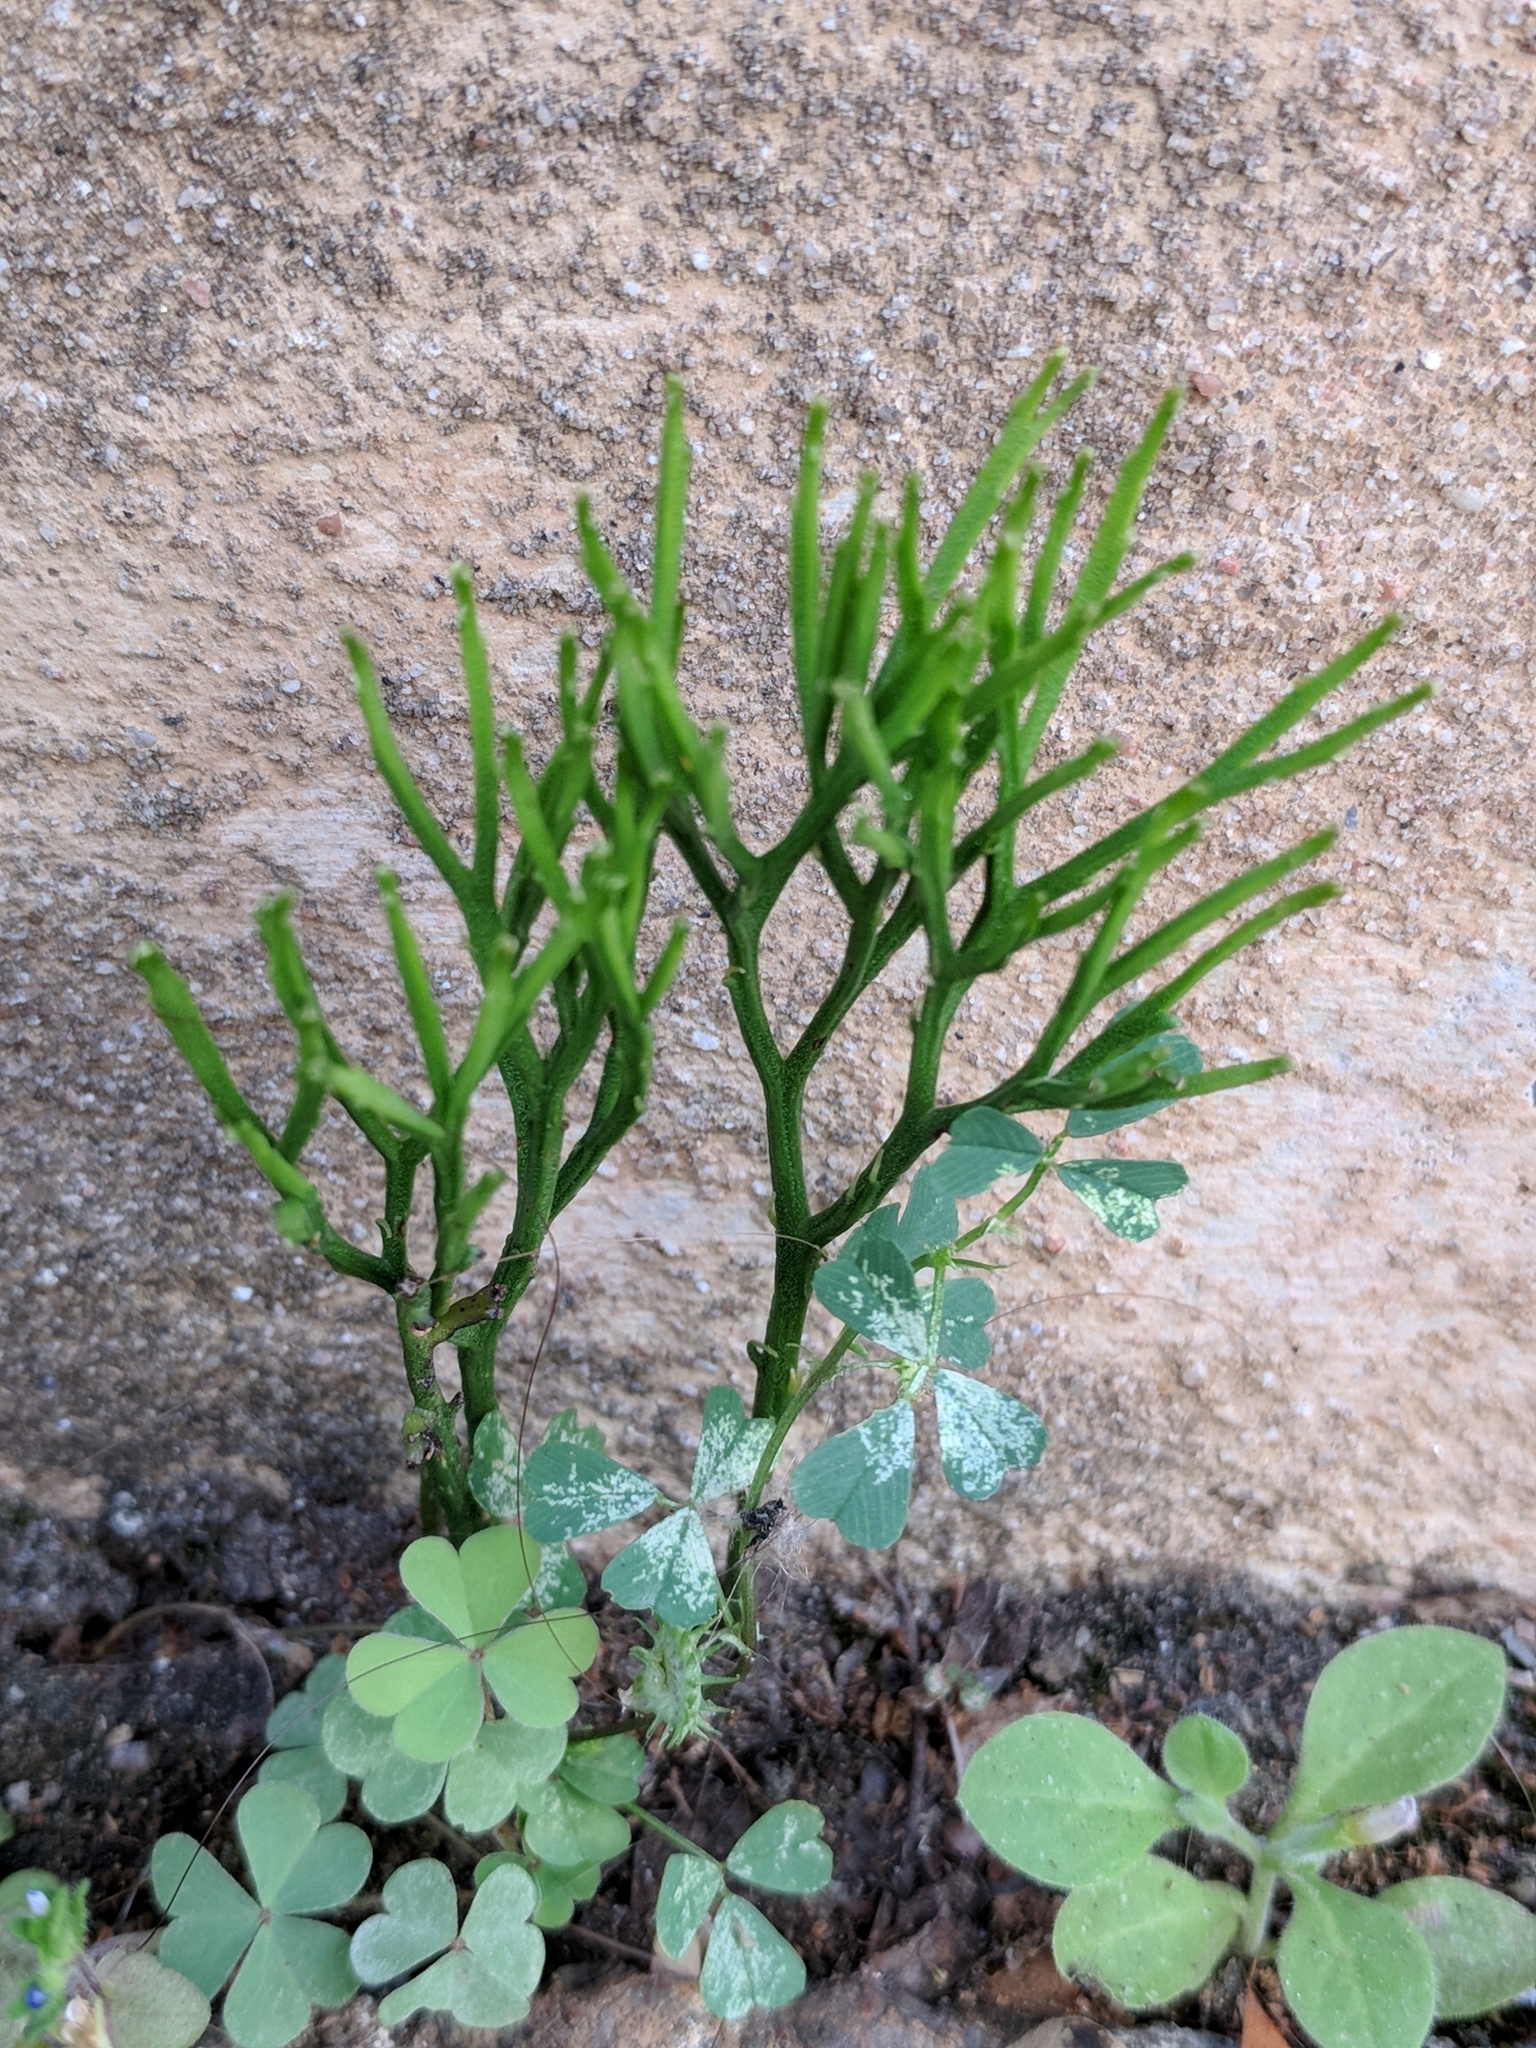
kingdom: Plantae
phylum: Tracheophyta
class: Polypodiopsida
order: Psilotales
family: Psilotaceae
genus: Psilotum
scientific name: Psilotum nudum
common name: Skeleton fork fern
